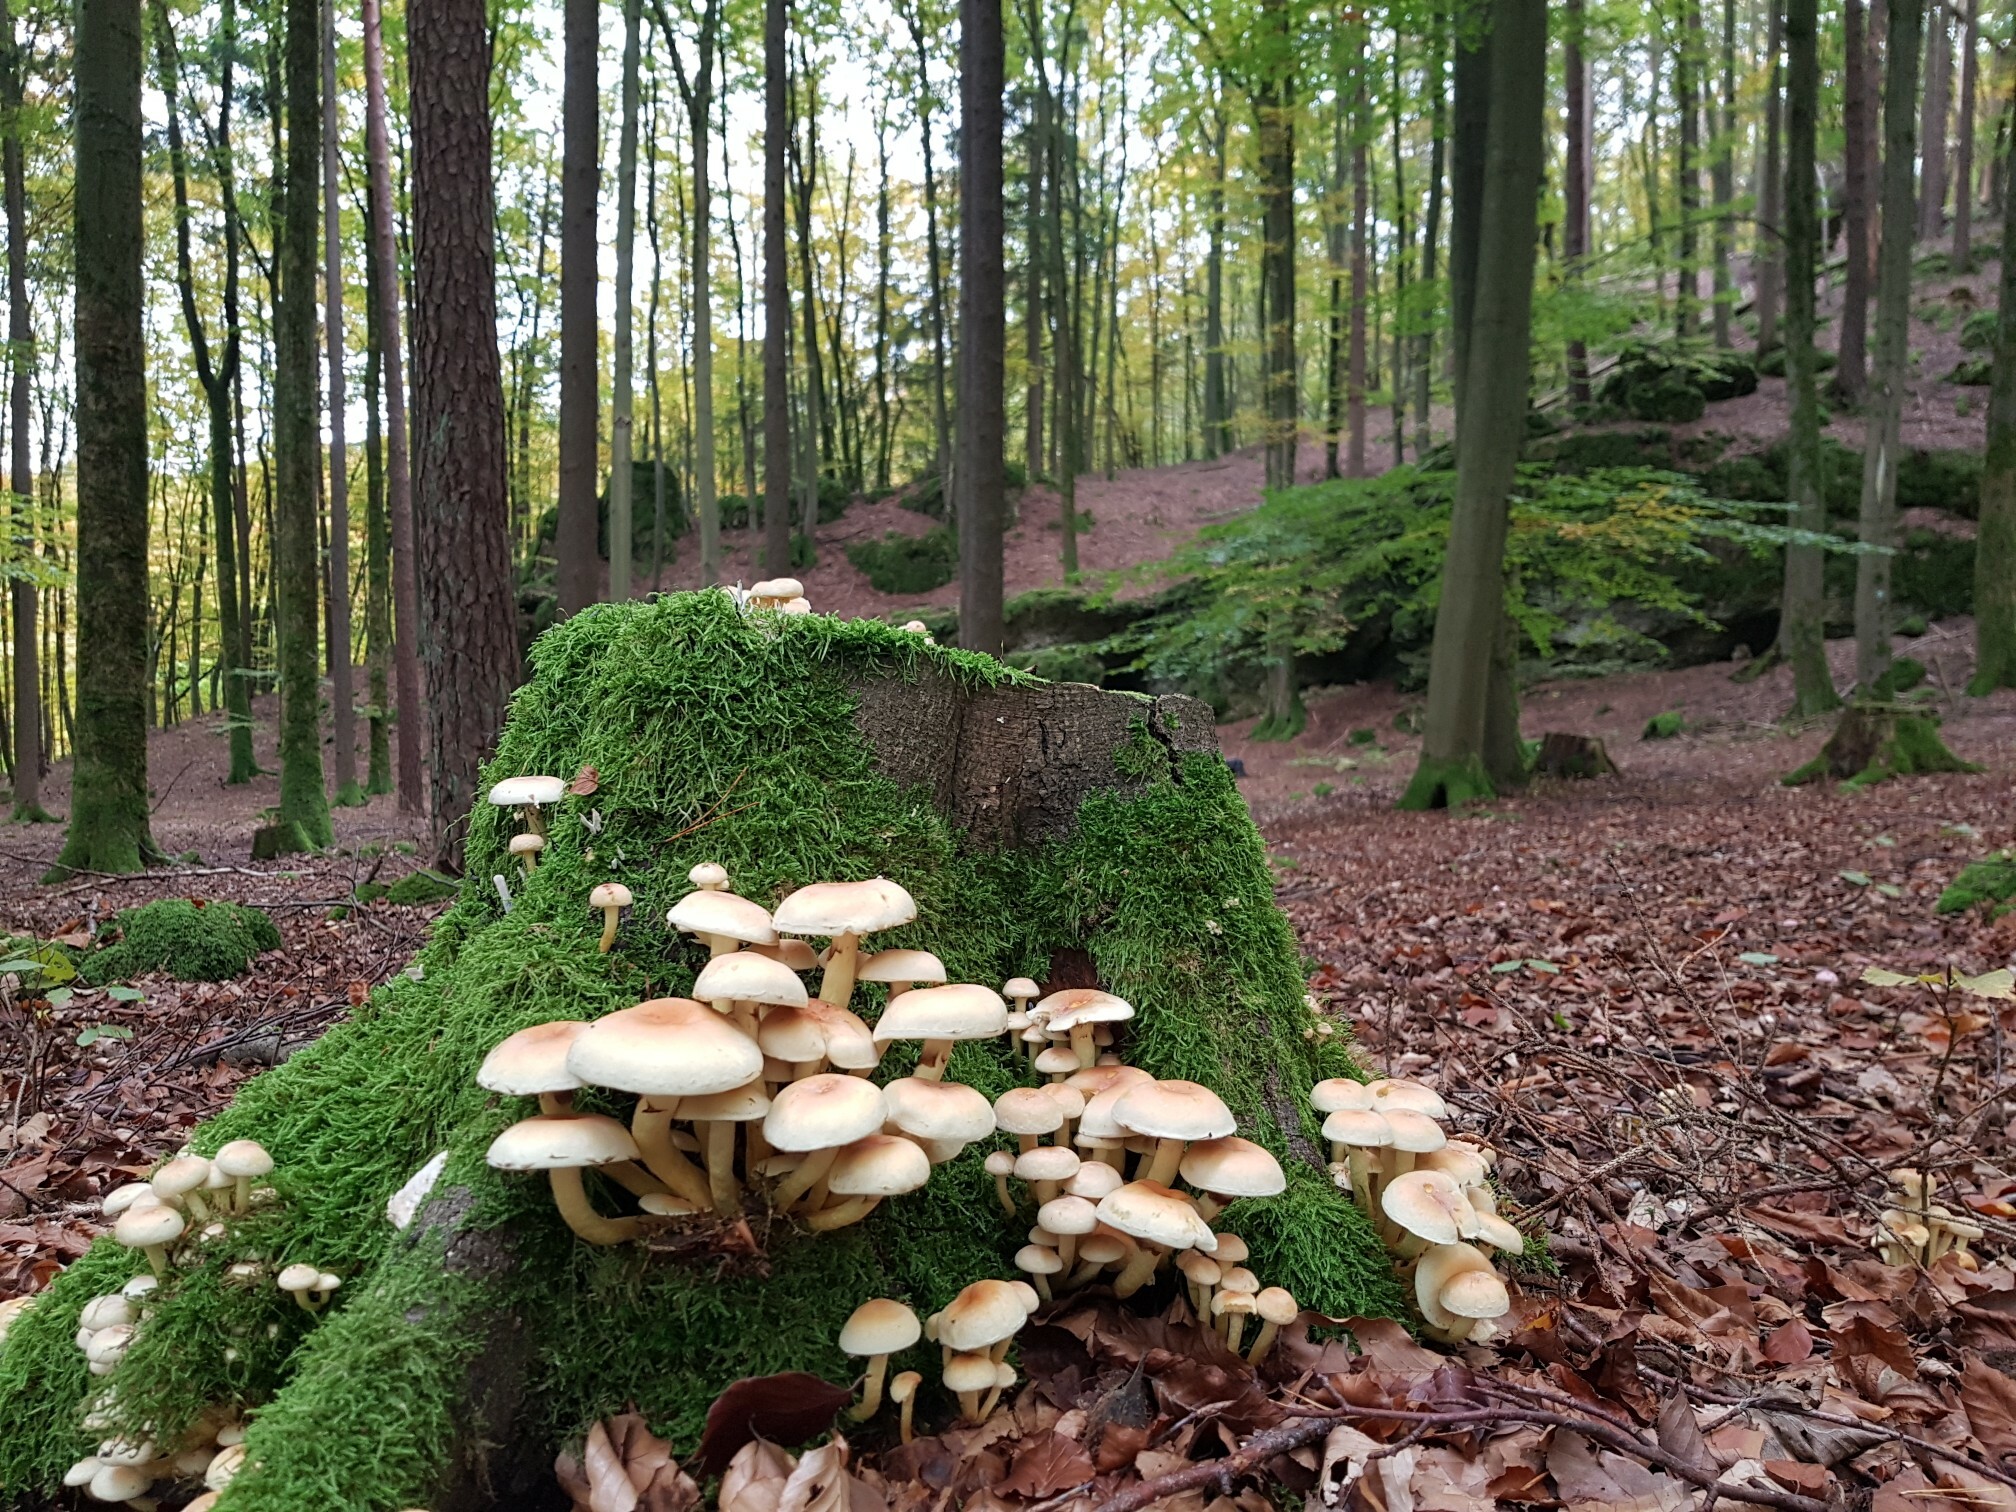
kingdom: Fungi
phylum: Basidiomycota
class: Agaricomycetes
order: Agaricales
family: Strophariaceae
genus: Hypholoma
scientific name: Hypholoma lateritium
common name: Brick caps
